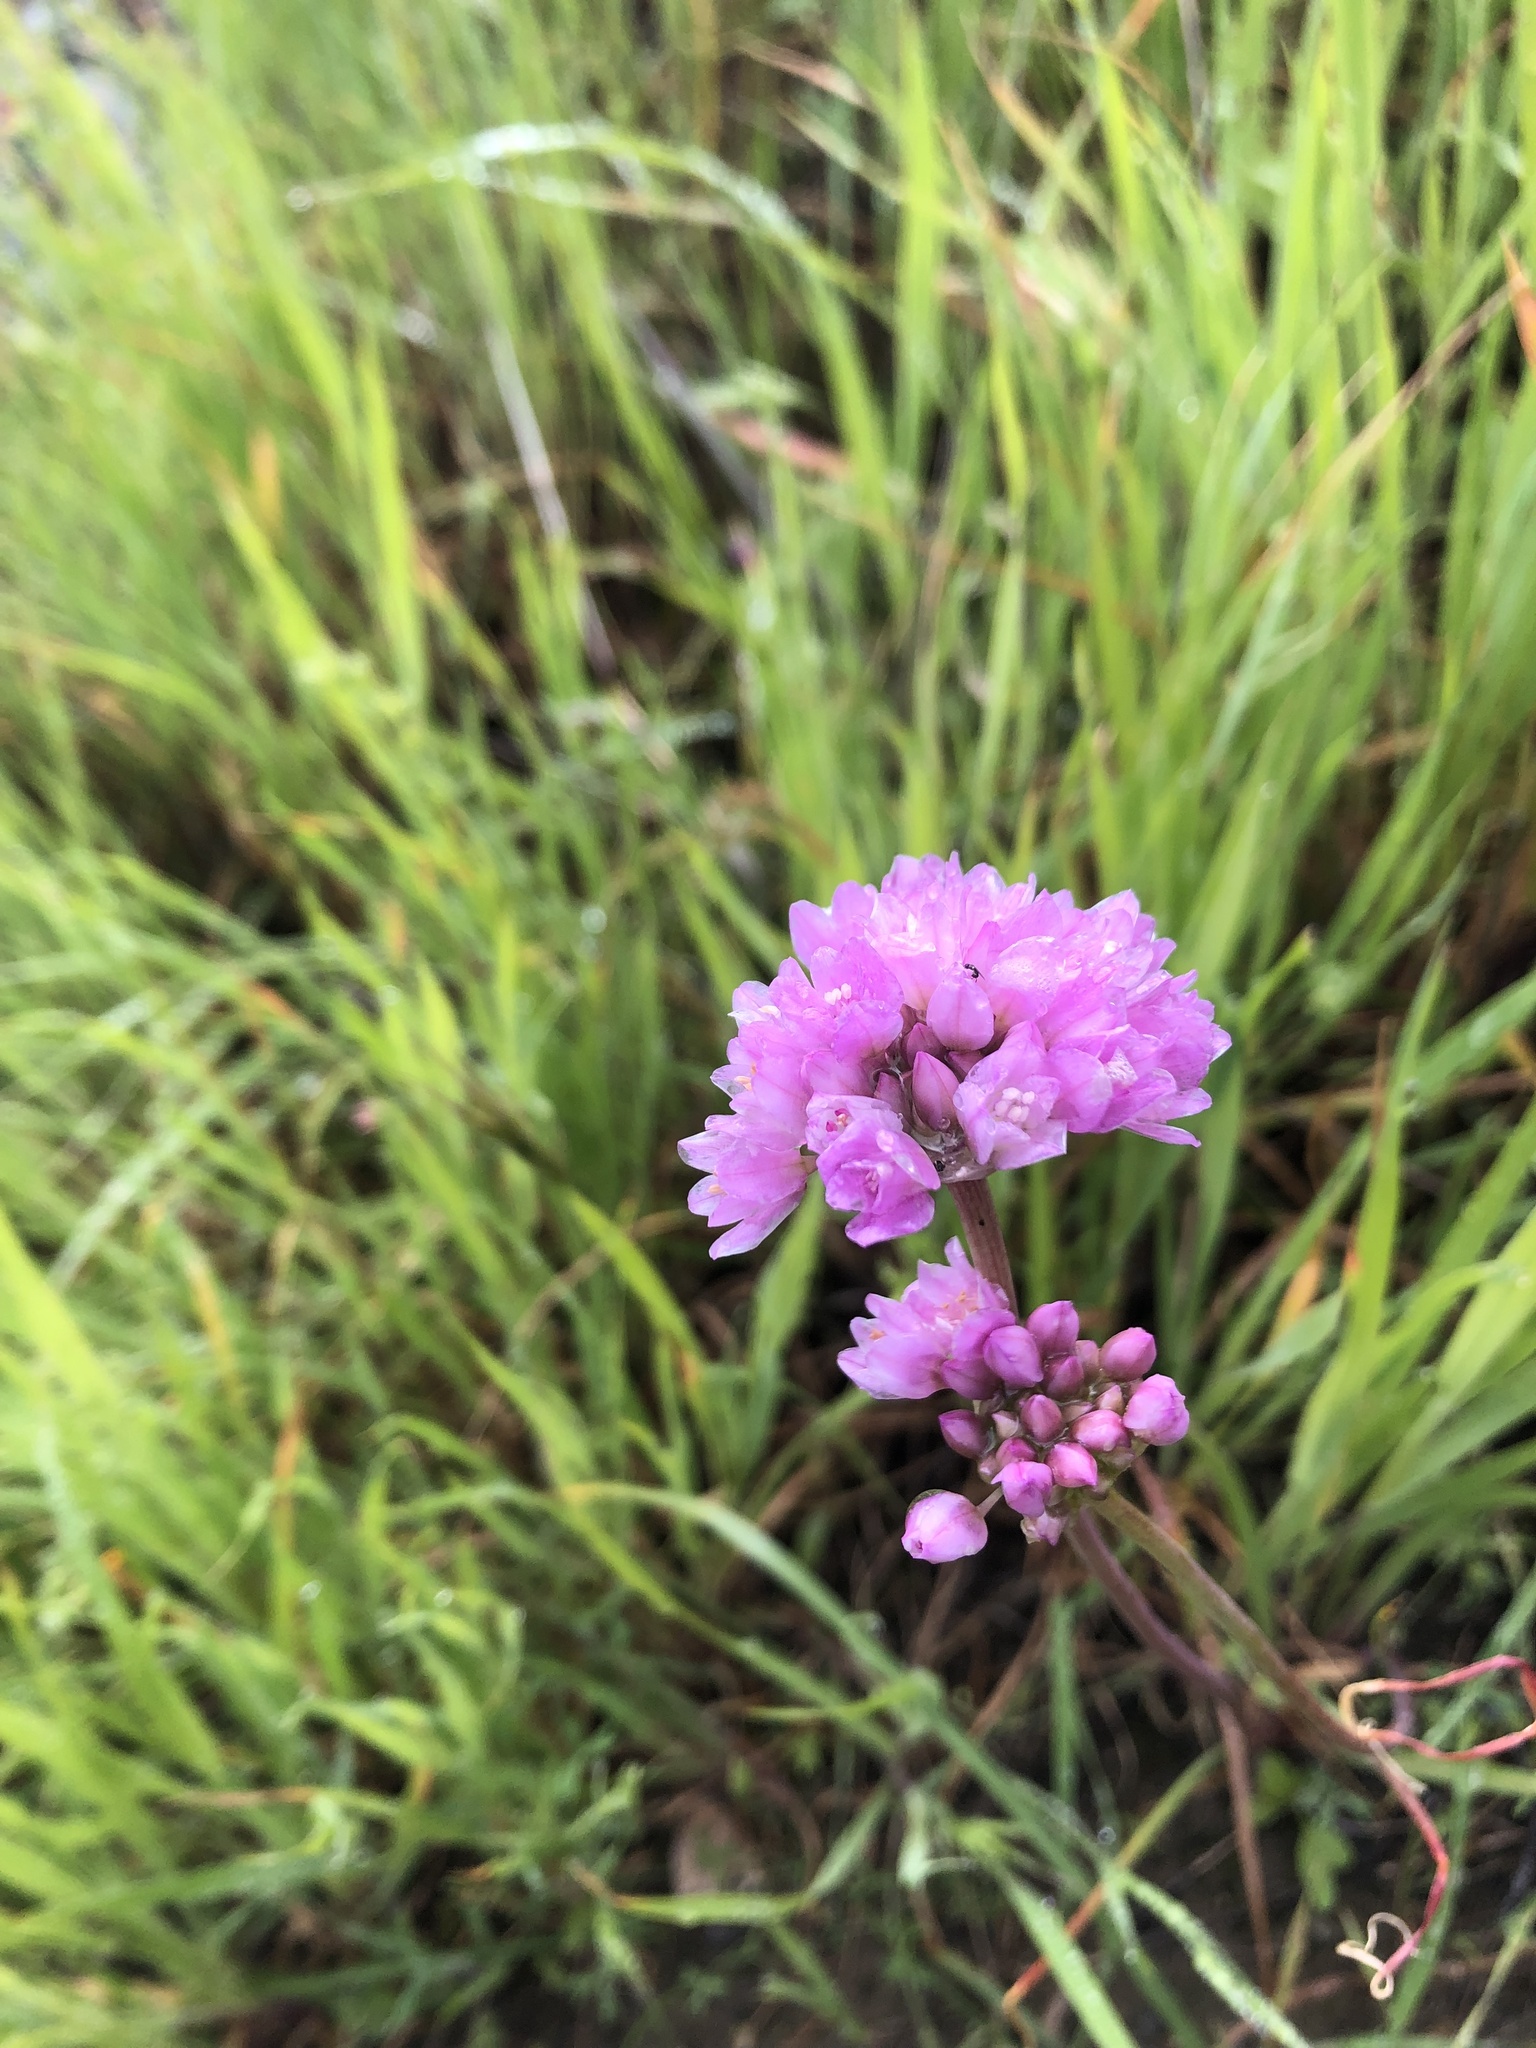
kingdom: Plantae
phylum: Tracheophyta
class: Liliopsida
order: Asparagales
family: Amaryllidaceae
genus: Allium
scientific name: Allium serra
